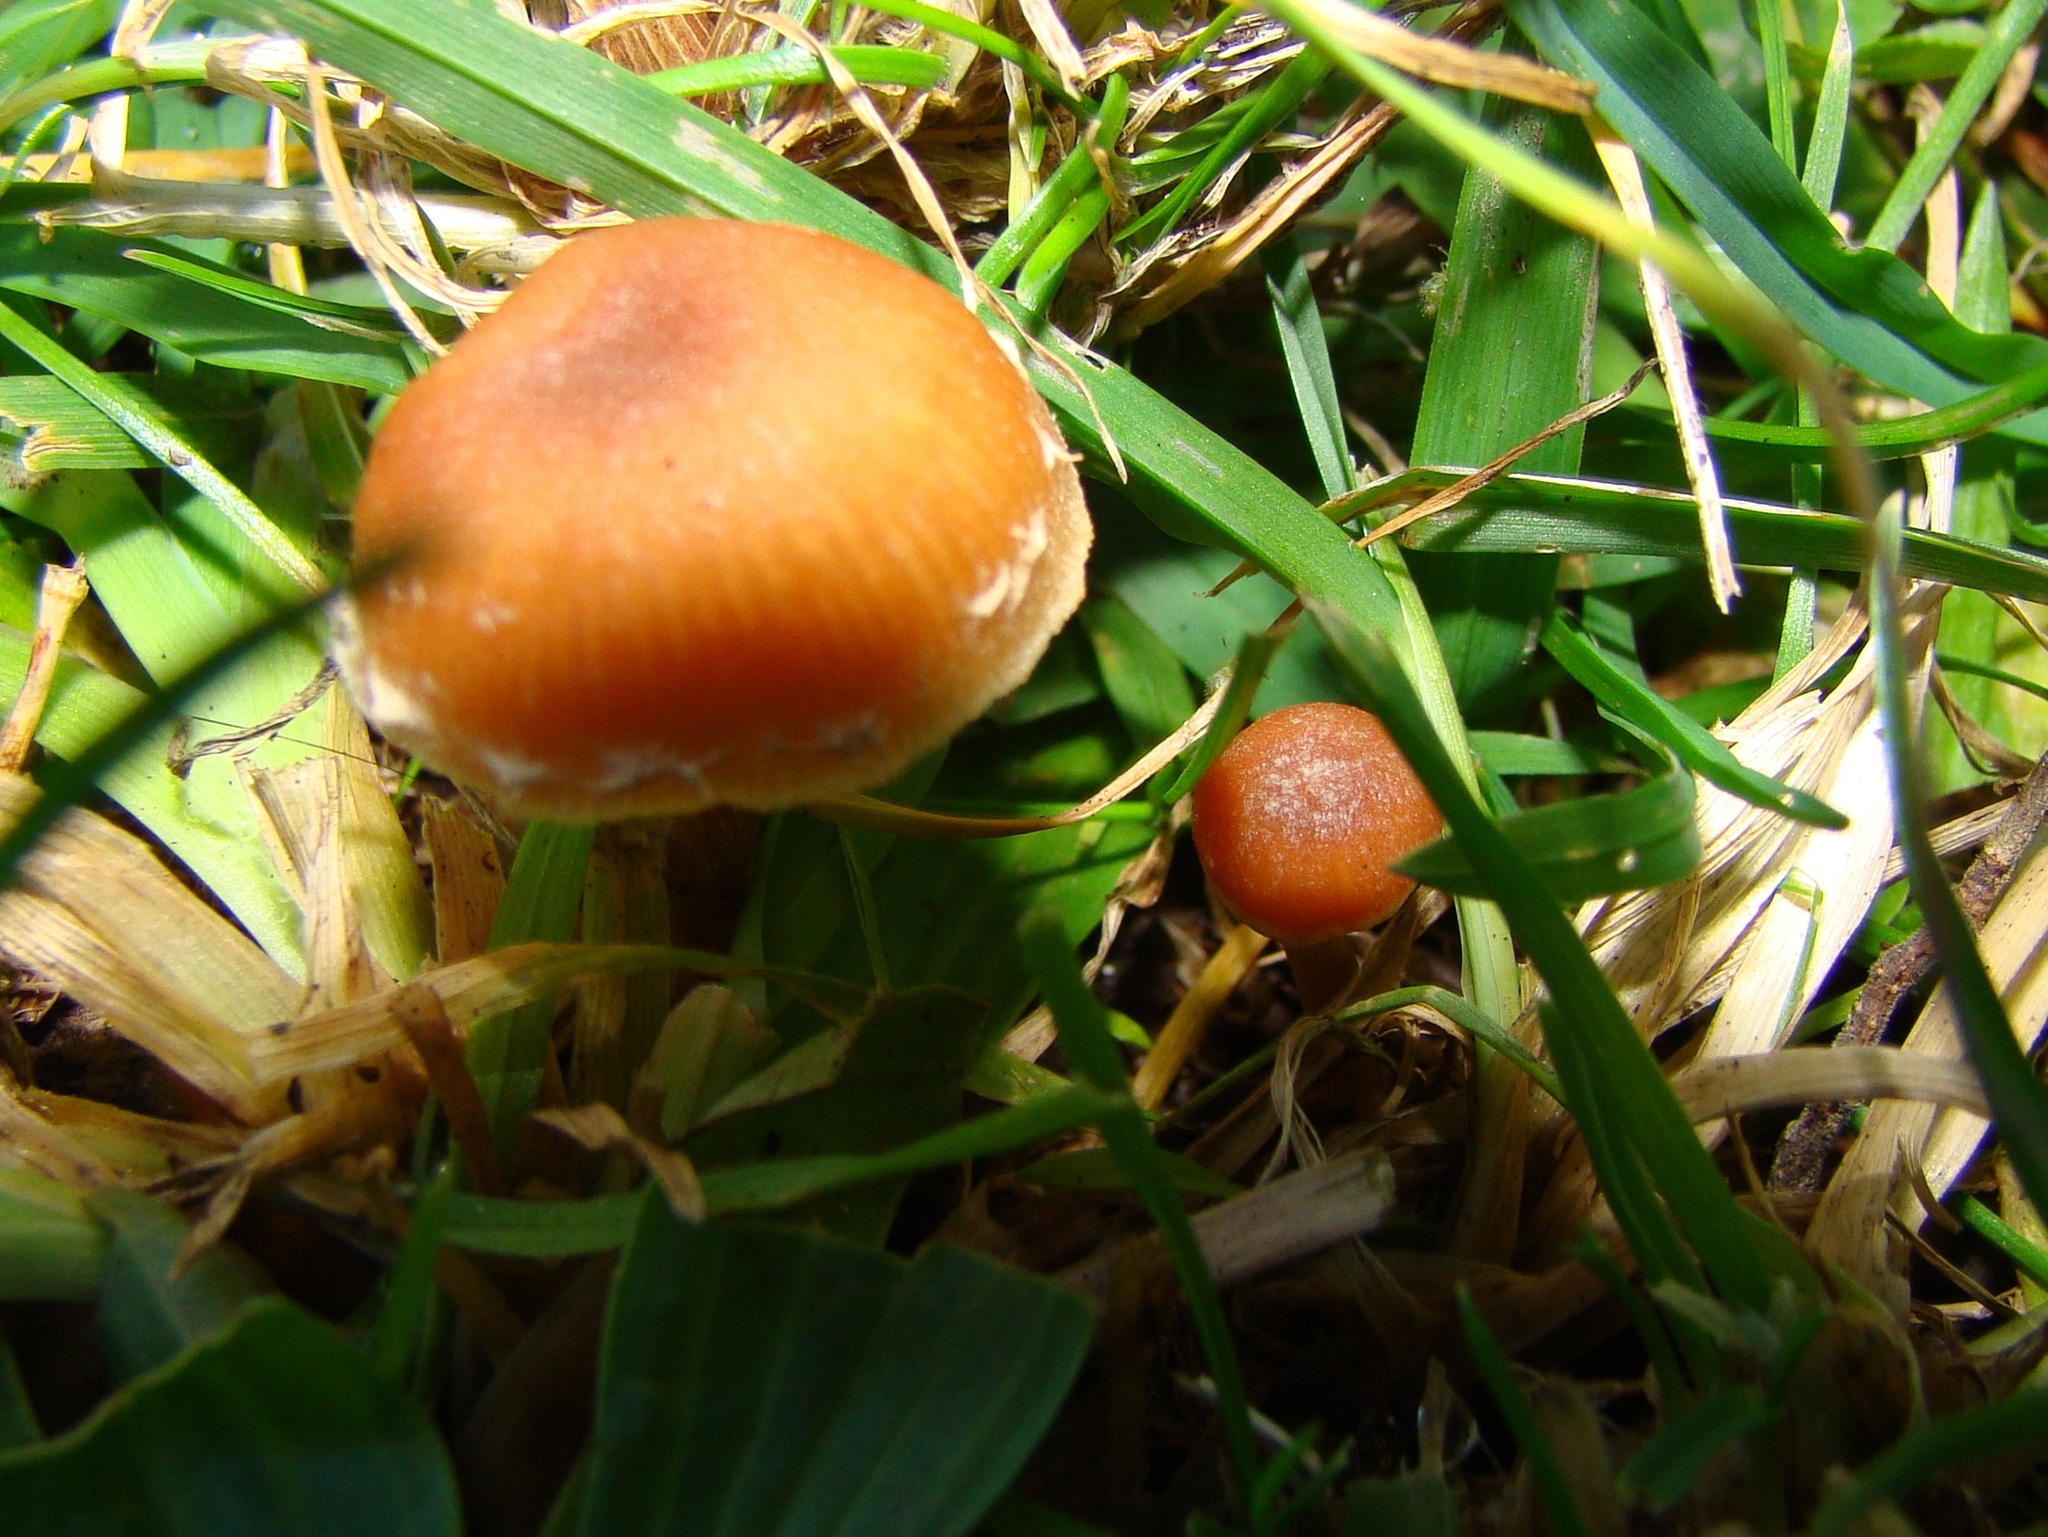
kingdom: Fungi
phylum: Basidiomycota
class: Agaricomycetes
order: Agaricales
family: Tubariaceae
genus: Tubaria
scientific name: Tubaria furfuracea
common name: Scurfy twiglet
